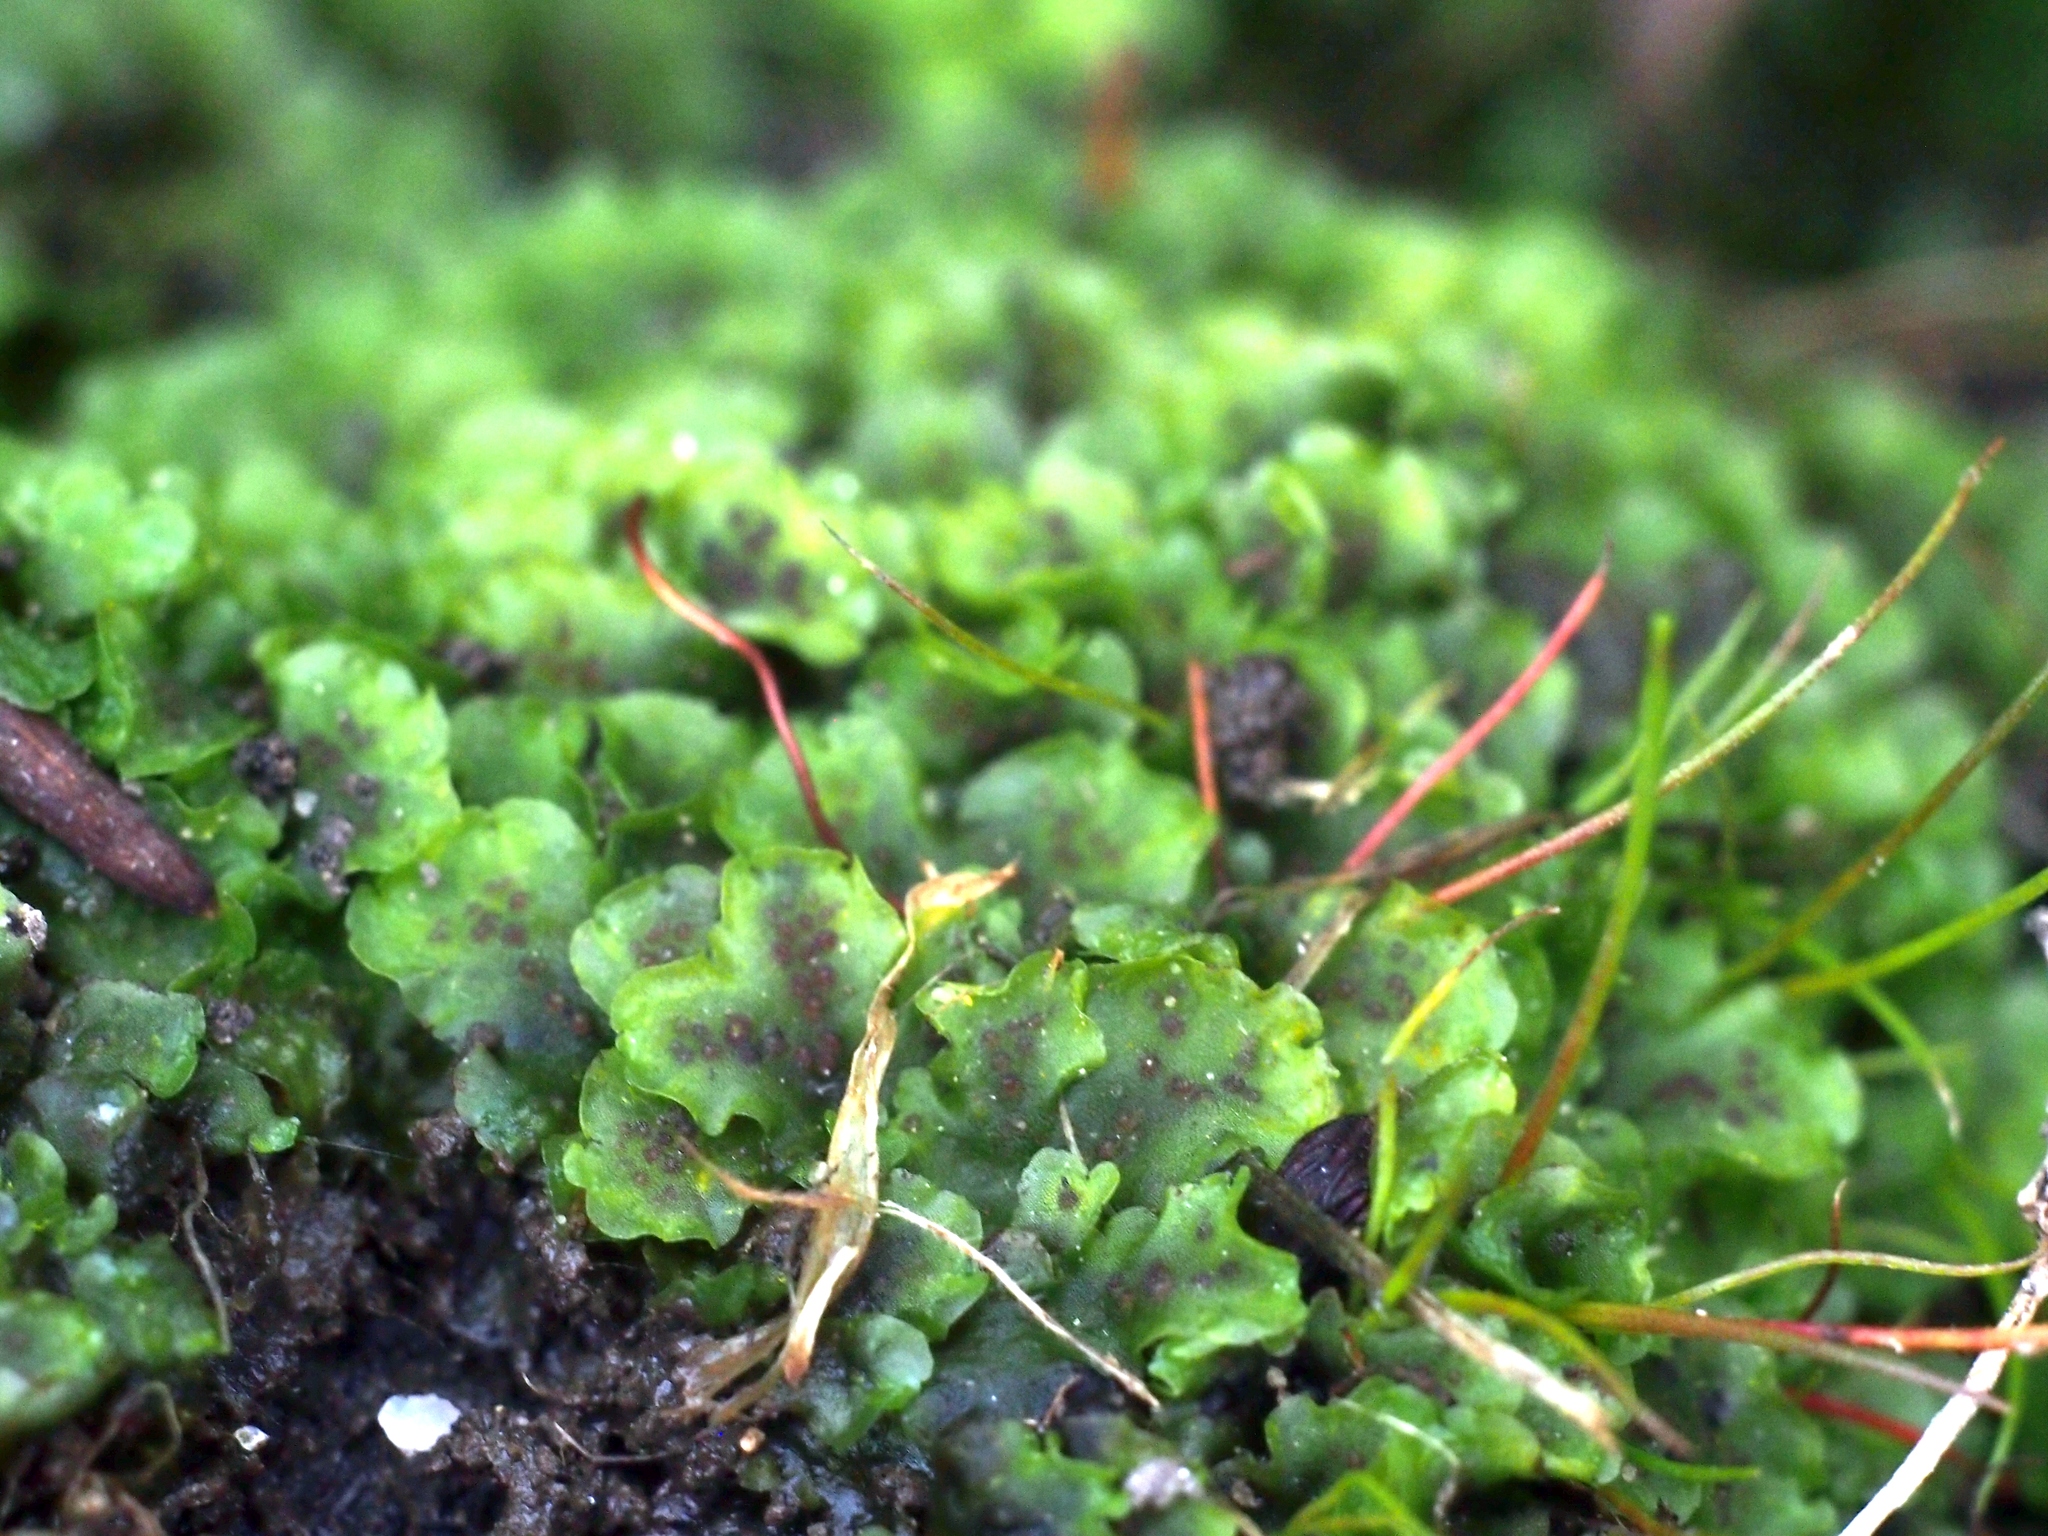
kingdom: Plantae
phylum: Marchantiophyta
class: Jungermanniopsida
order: Pelliales
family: Pelliaceae
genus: Apopellia
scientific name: Apopellia endiviifolia
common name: Endive pellia
